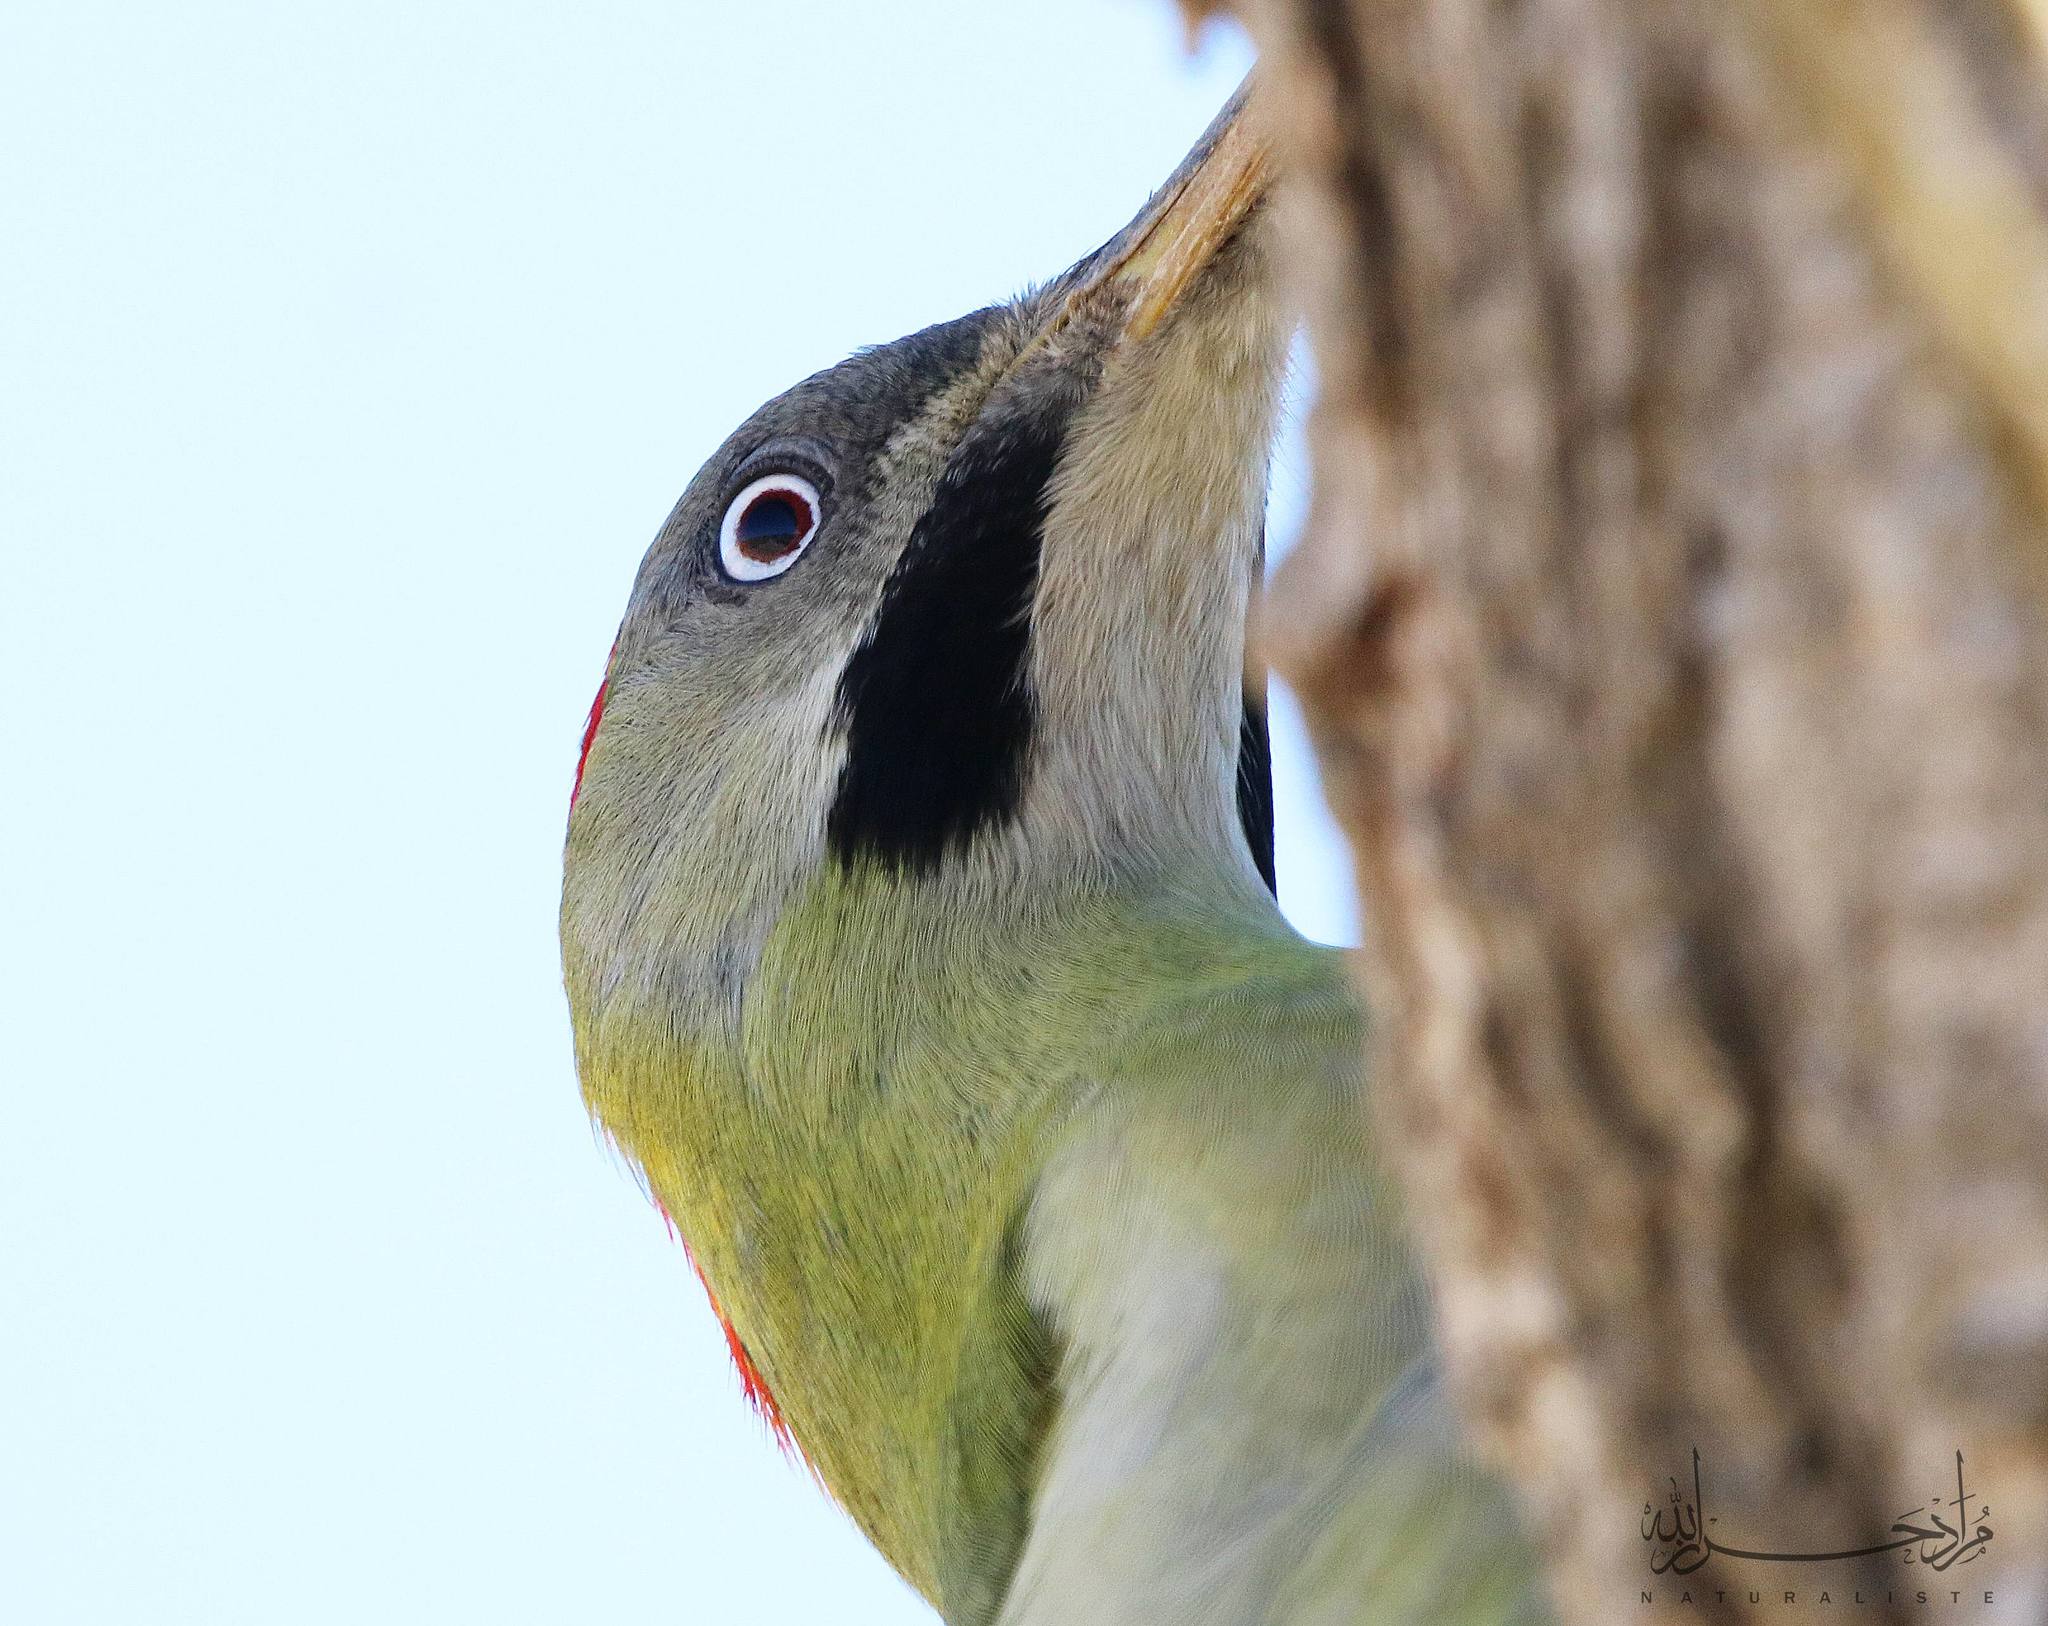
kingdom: Animalia
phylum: Chordata
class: Aves
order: Piciformes
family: Picidae
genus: Picus
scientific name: Picus vaillantii
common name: Levaillant's woodpecker
